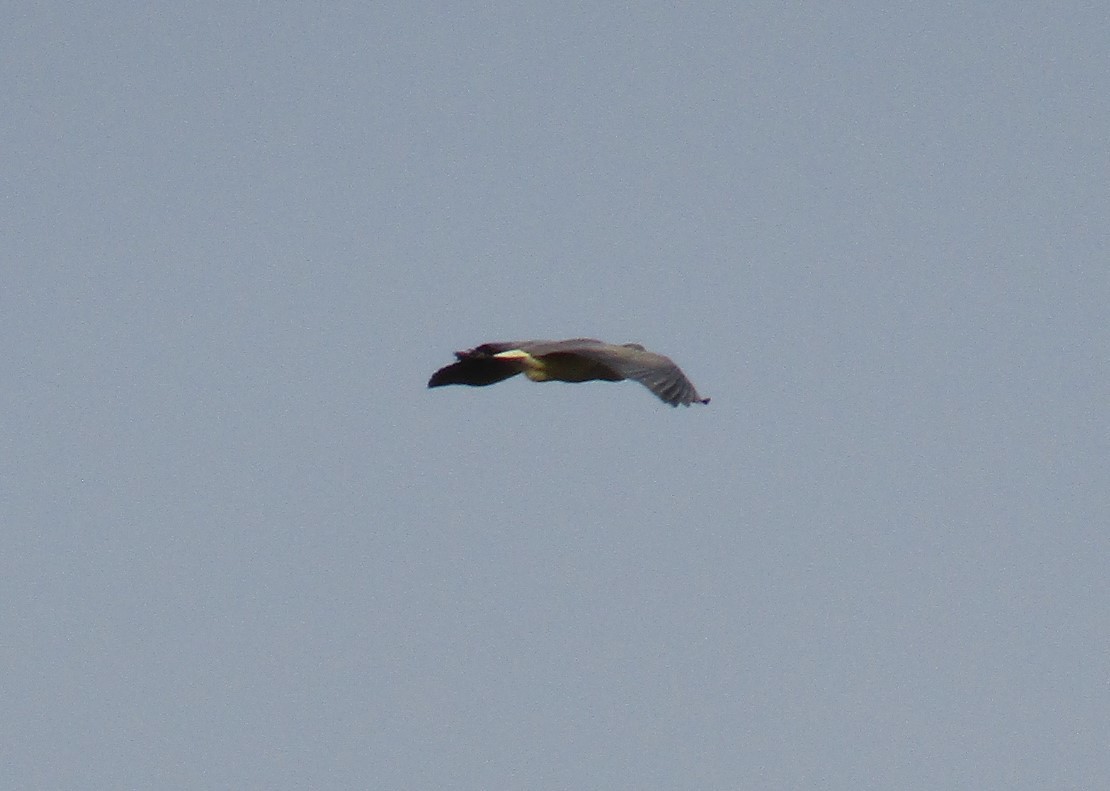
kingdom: Animalia
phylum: Chordata
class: Aves
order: Pelecaniformes
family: Ardeidae
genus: Syrigma
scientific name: Syrigma sibilatrix
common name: Whistling heron
